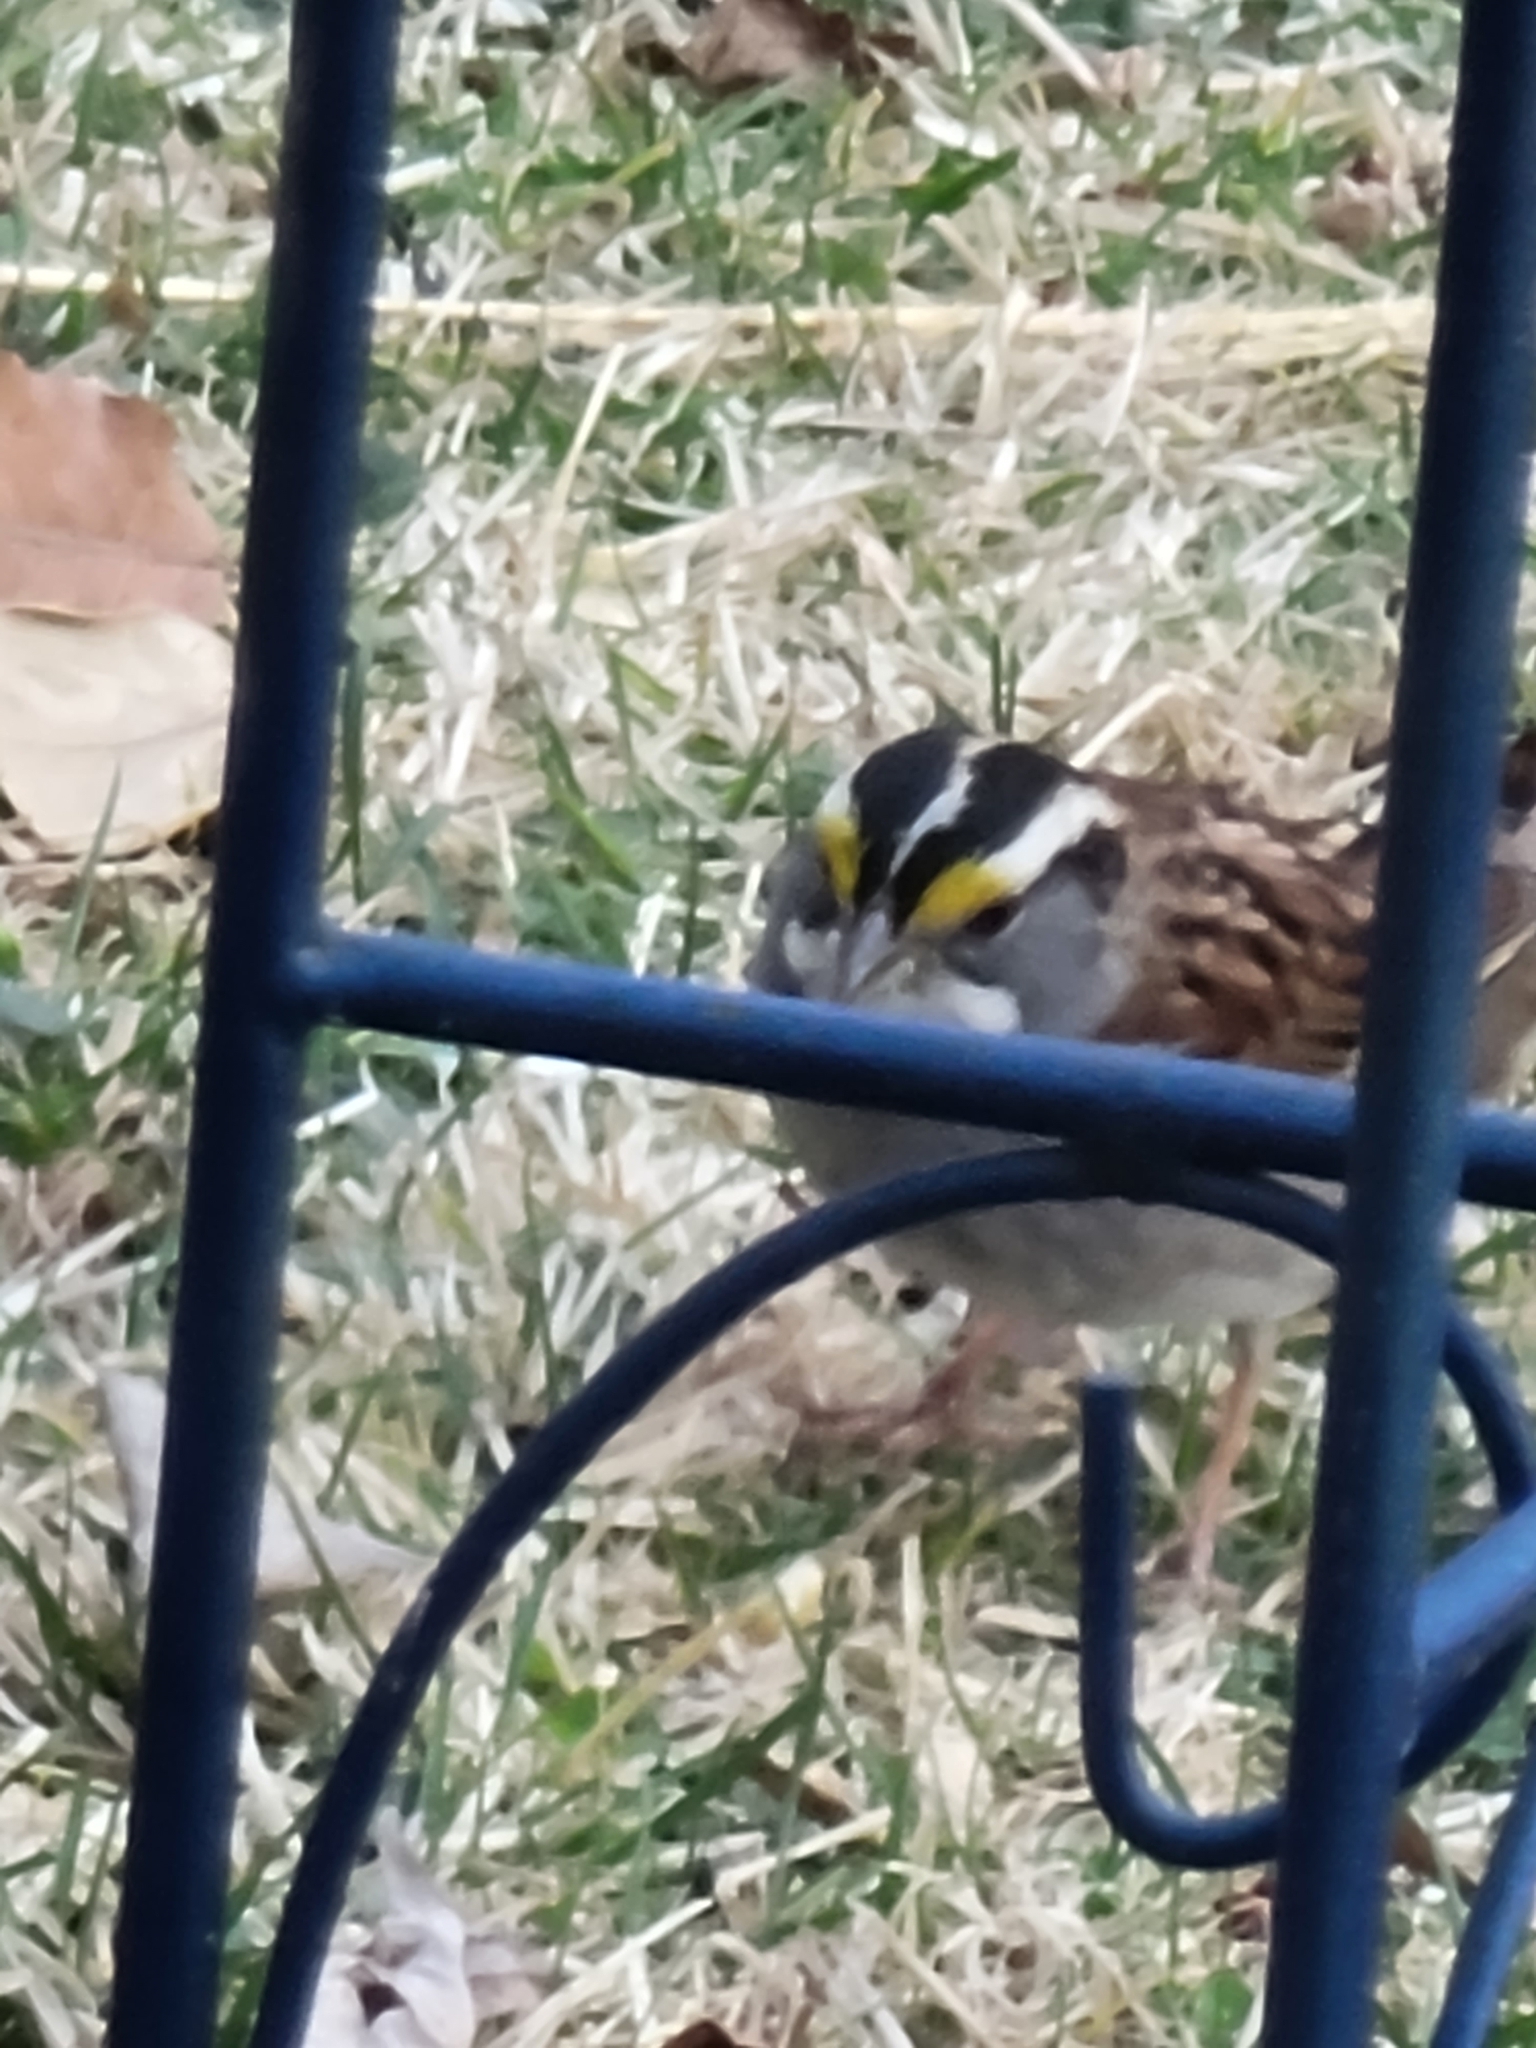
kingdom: Animalia
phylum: Chordata
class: Aves
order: Passeriformes
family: Passerellidae
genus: Zonotrichia
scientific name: Zonotrichia albicollis
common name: White-throated sparrow
